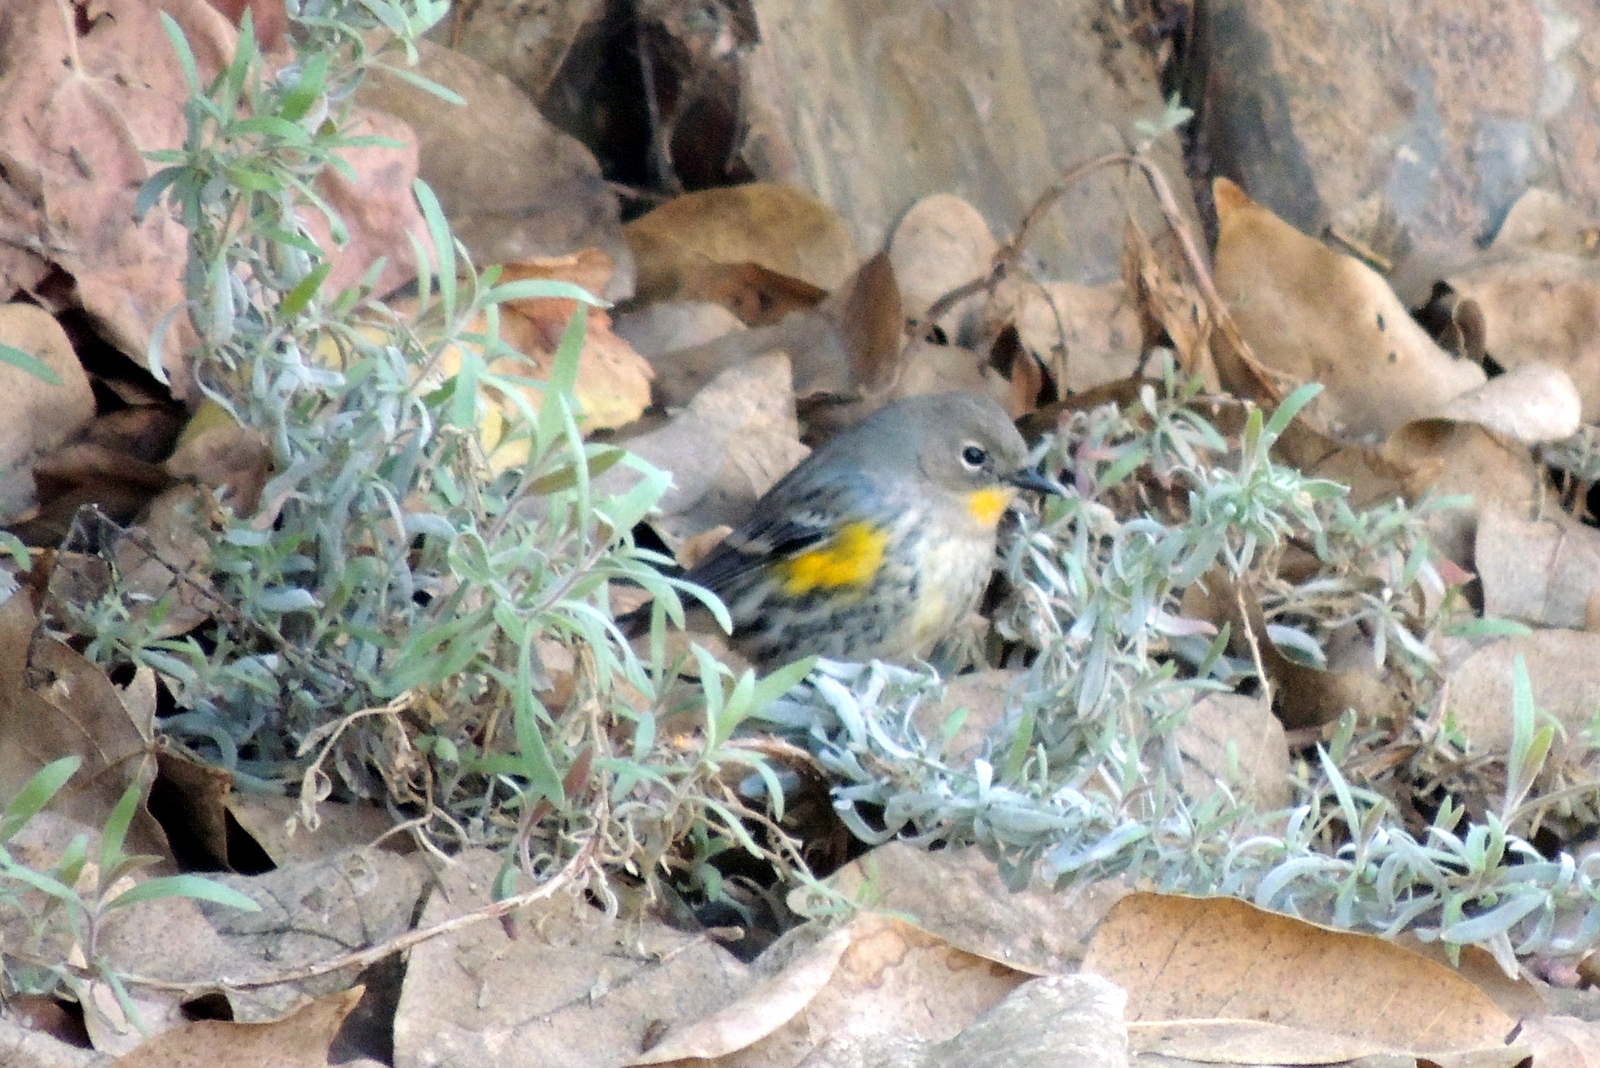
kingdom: Animalia
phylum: Chordata
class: Aves
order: Passeriformes
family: Parulidae
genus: Setophaga
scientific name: Setophaga auduboni
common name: Audubon's warbler
